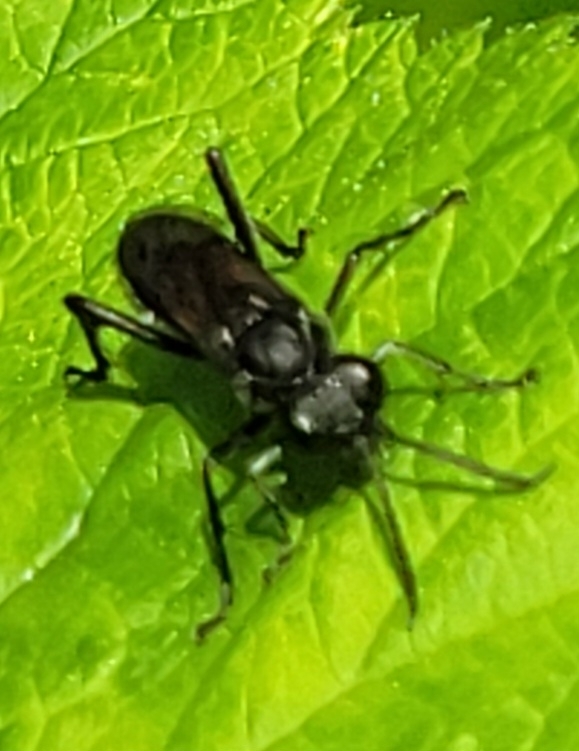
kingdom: Animalia
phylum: Arthropoda
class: Insecta
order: Hymenoptera
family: Tenthredinidae
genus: Macrophya
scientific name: Macrophya annulata
